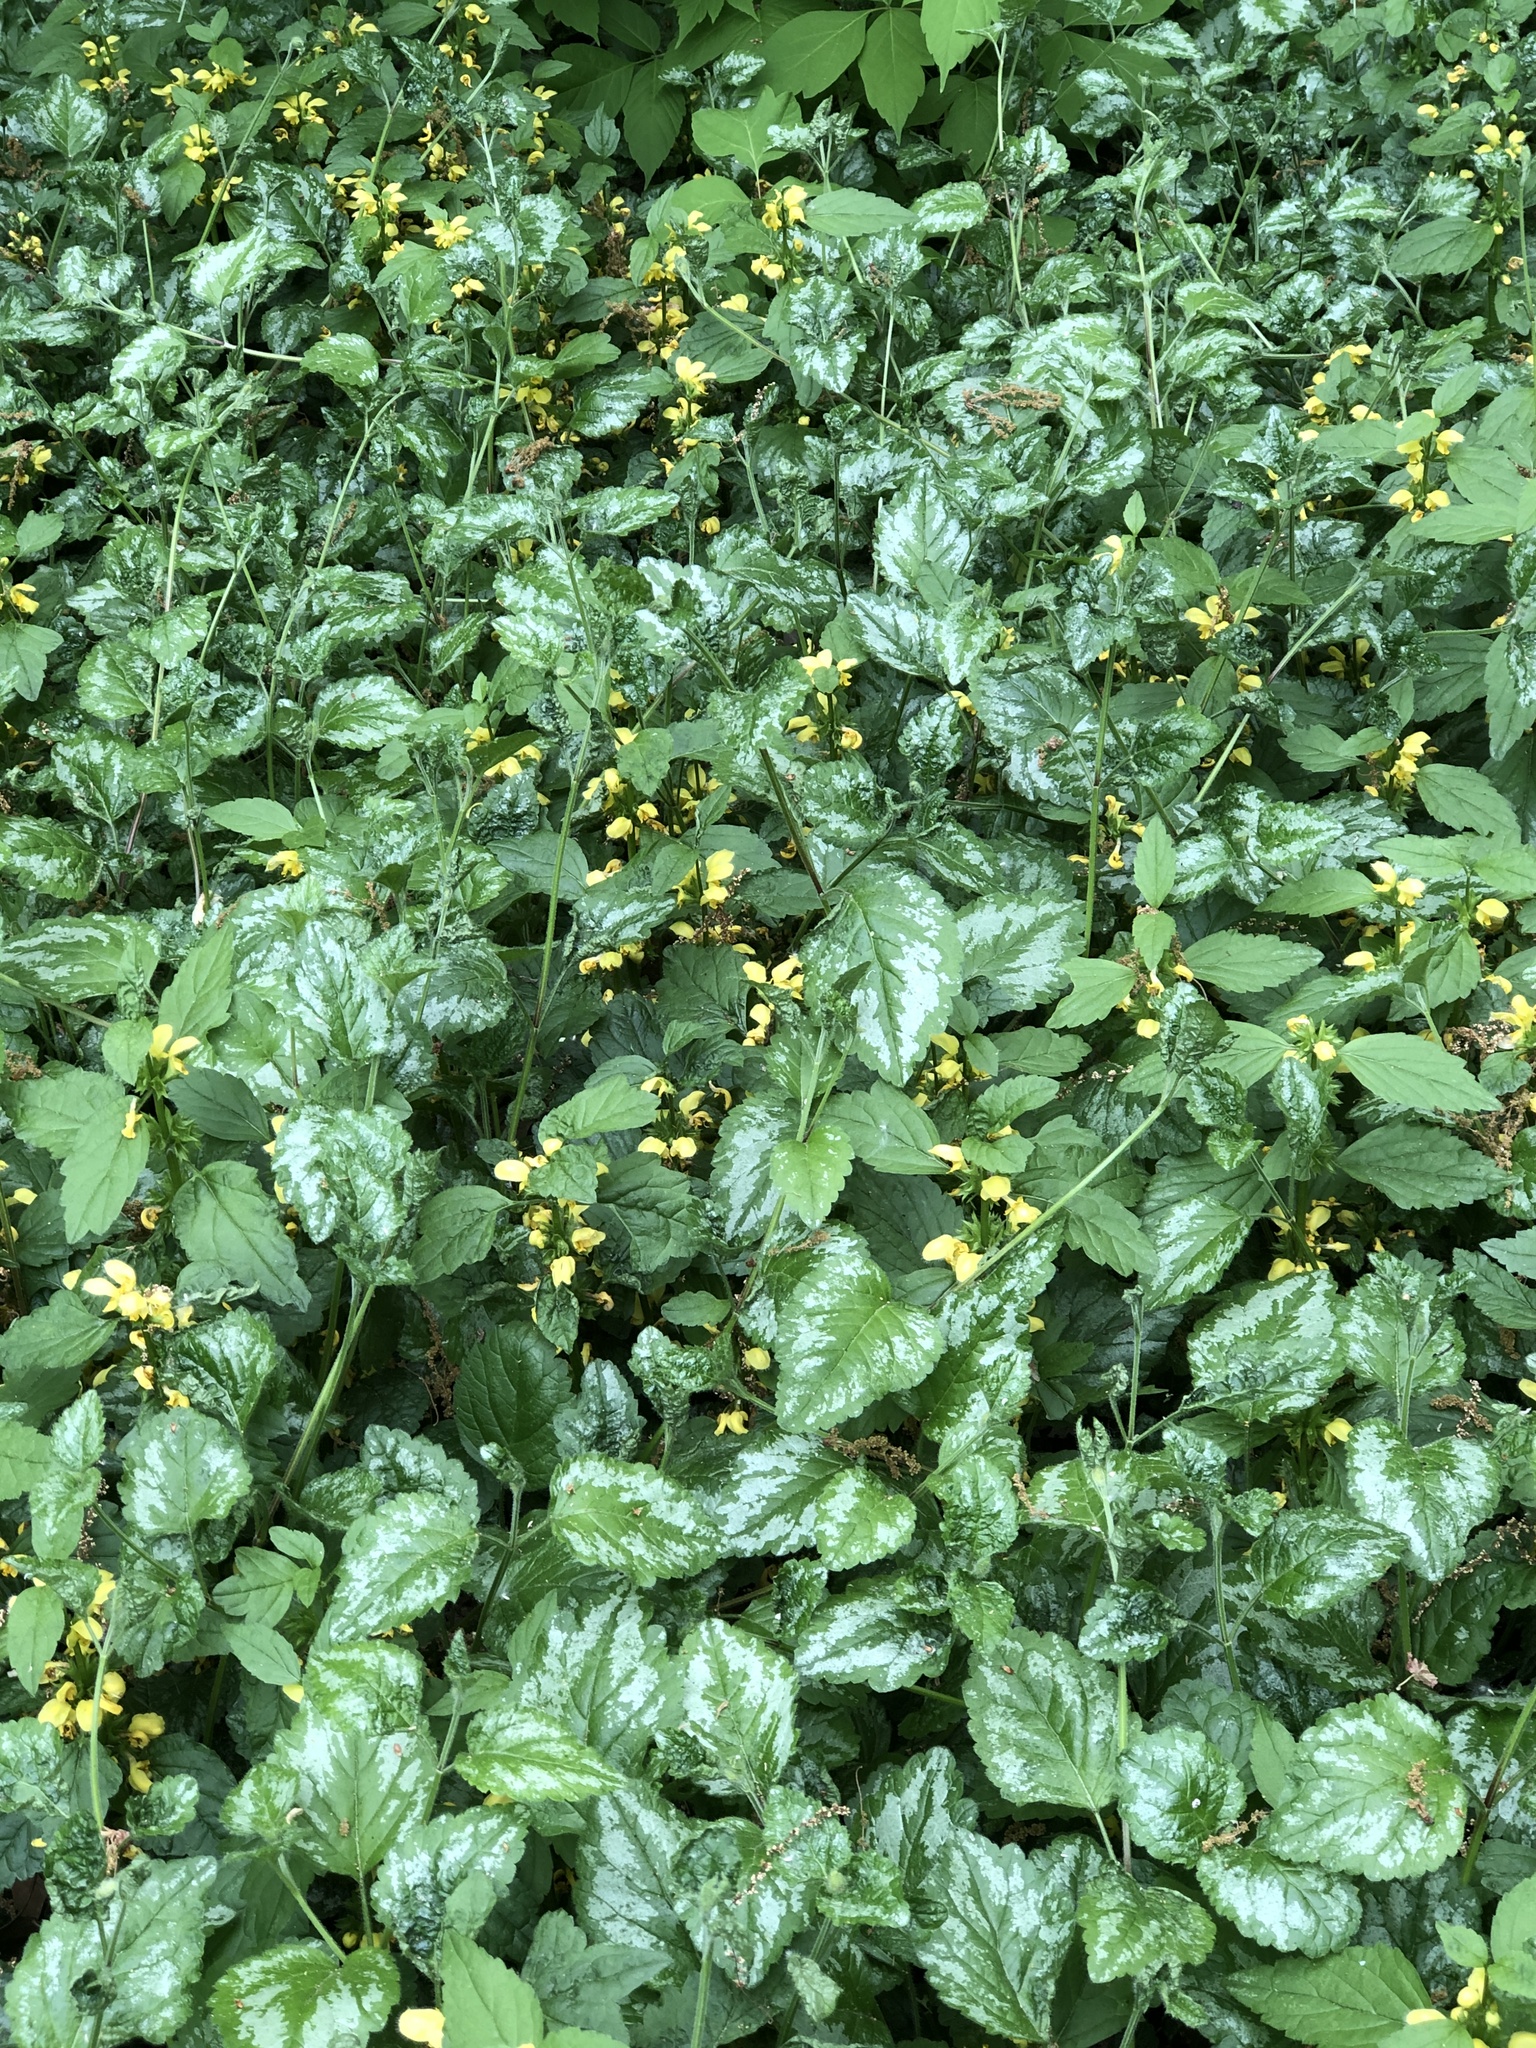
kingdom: Plantae
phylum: Tracheophyta
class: Magnoliopsida
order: Lamiales
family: Lamiaceae
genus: Lamium
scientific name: Lamium galeobdolon
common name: Yellow archangel
